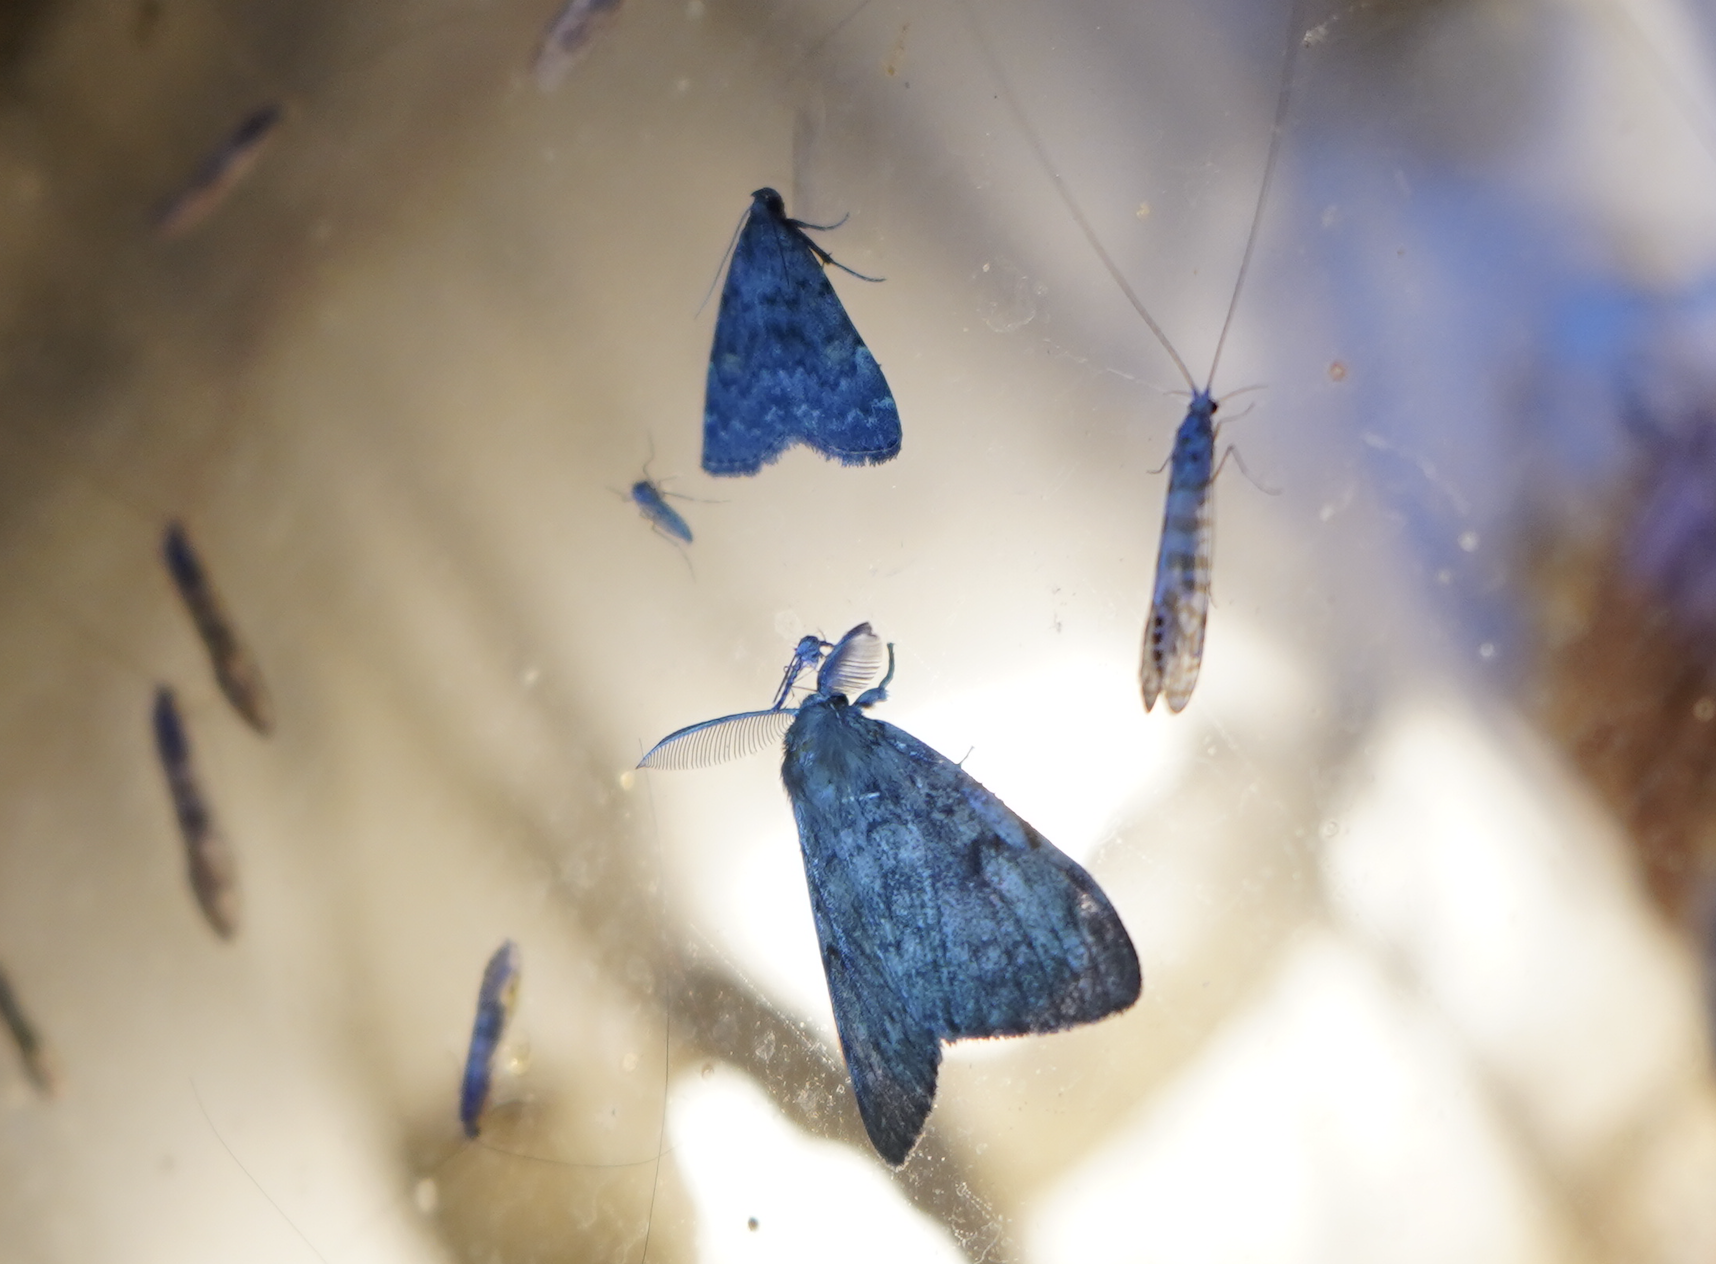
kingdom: Animalia
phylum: Arthropoda
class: Insecta
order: Lepidoptera
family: Erebidae
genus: Lymantria
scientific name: Lymantria dispar
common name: Gypsy moth
